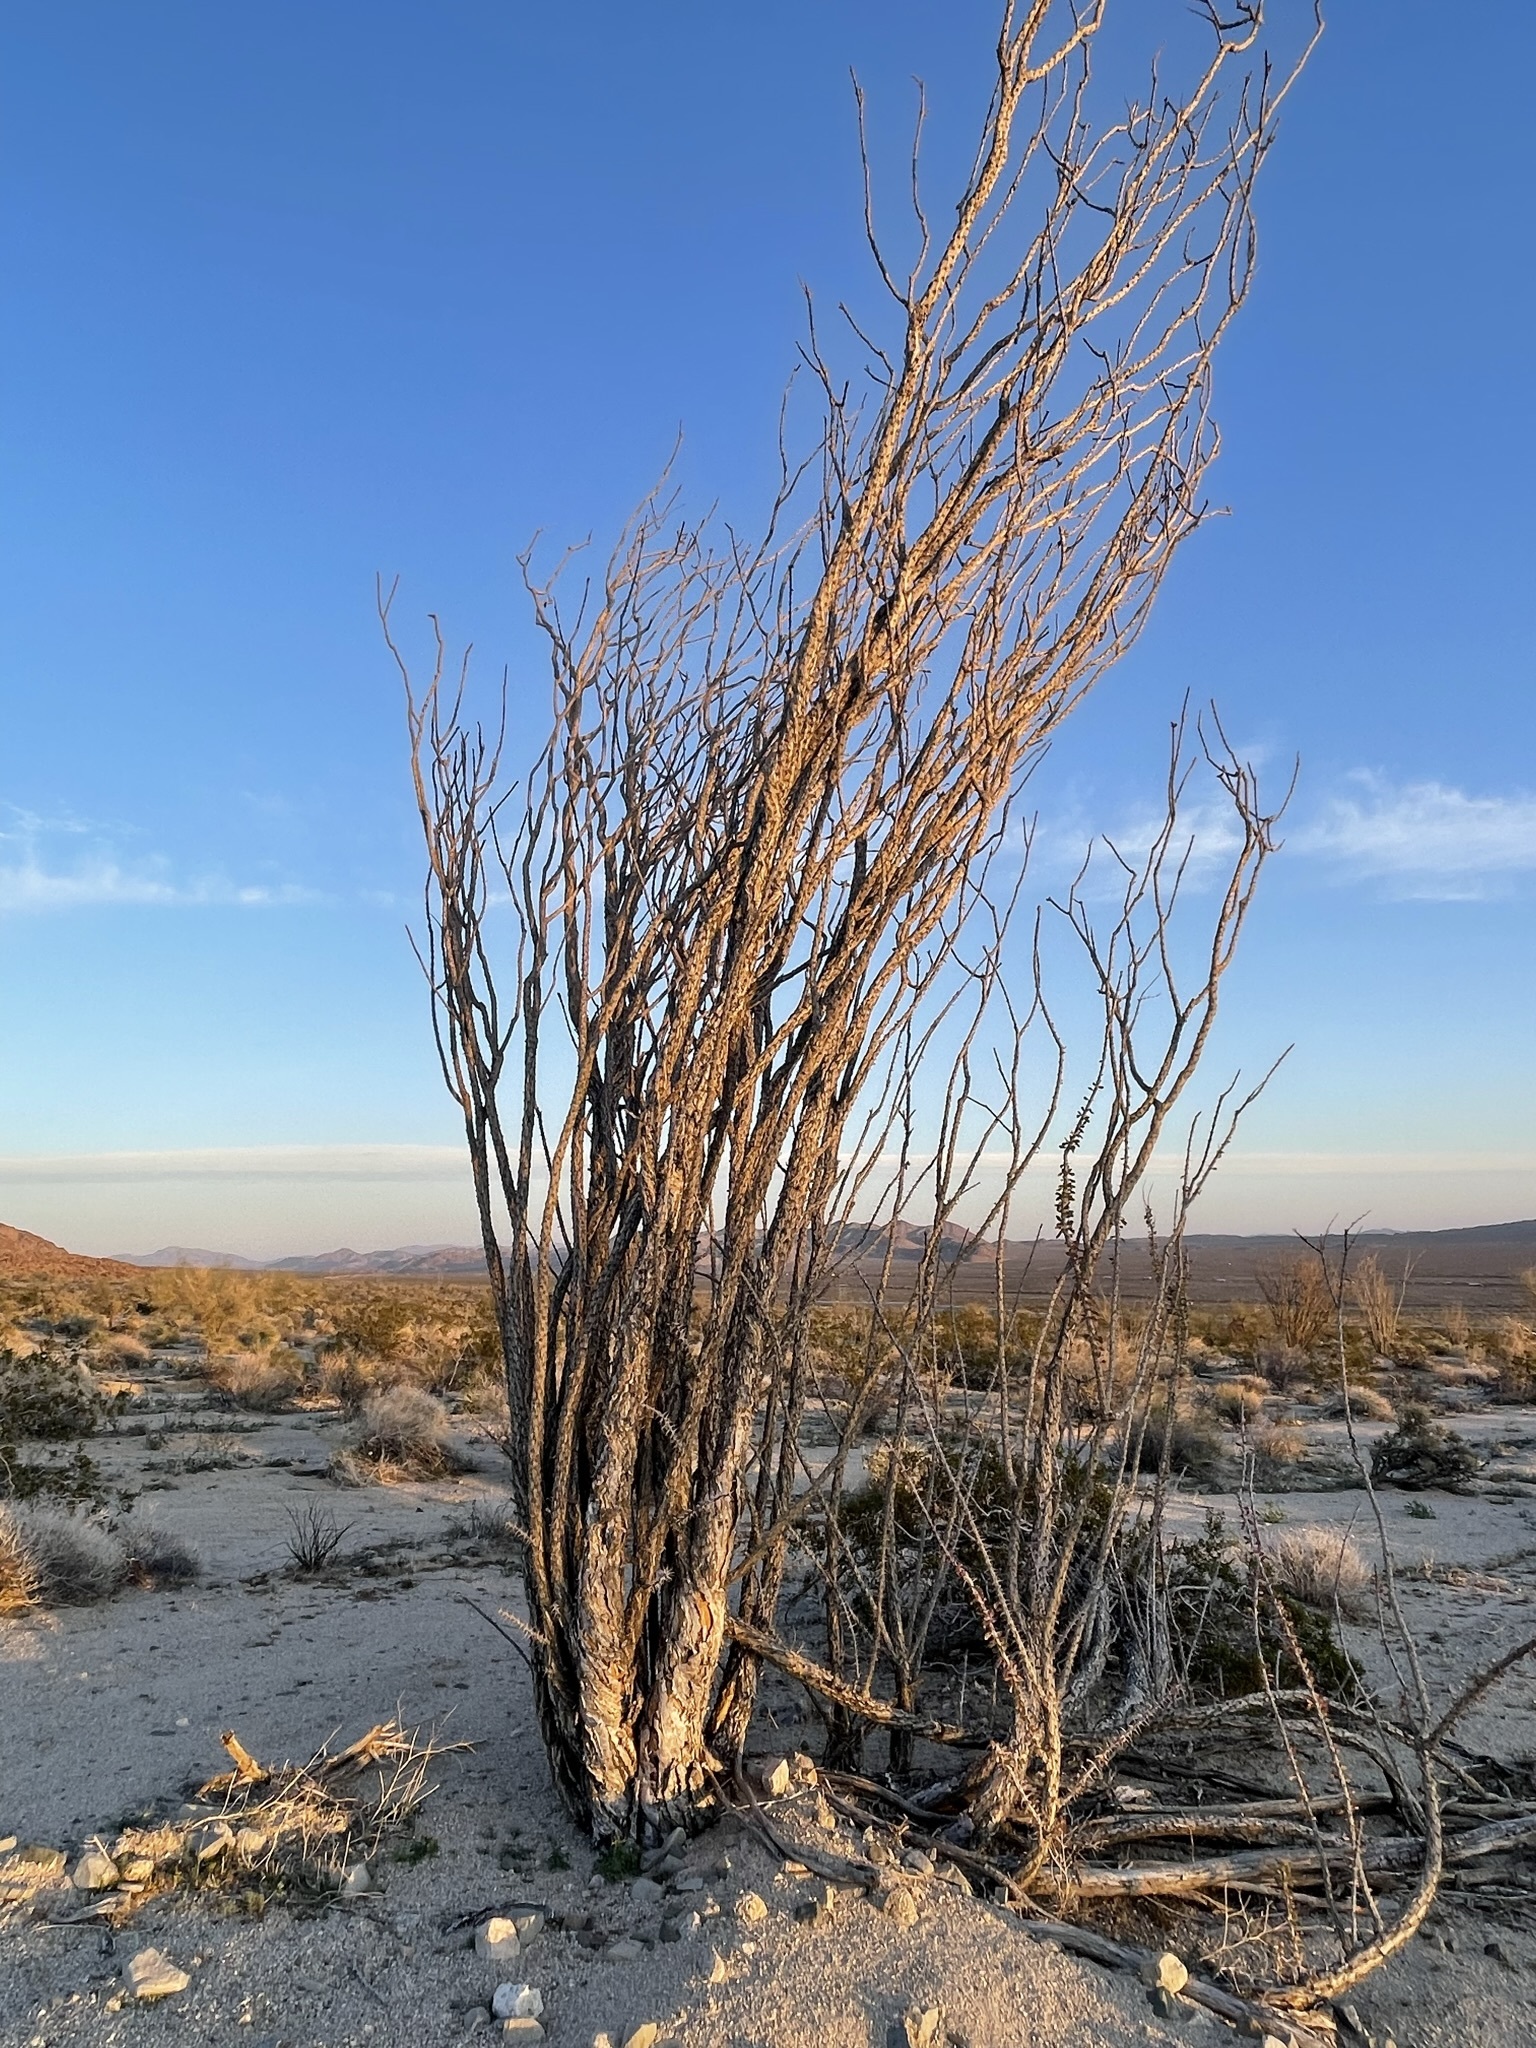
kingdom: Plantae
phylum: Tracheophyta
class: Magnoliopsida
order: Ericales
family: Fouquieriaceae
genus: Fouquieria
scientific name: Fouquieria splendens
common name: Vine-cactus
